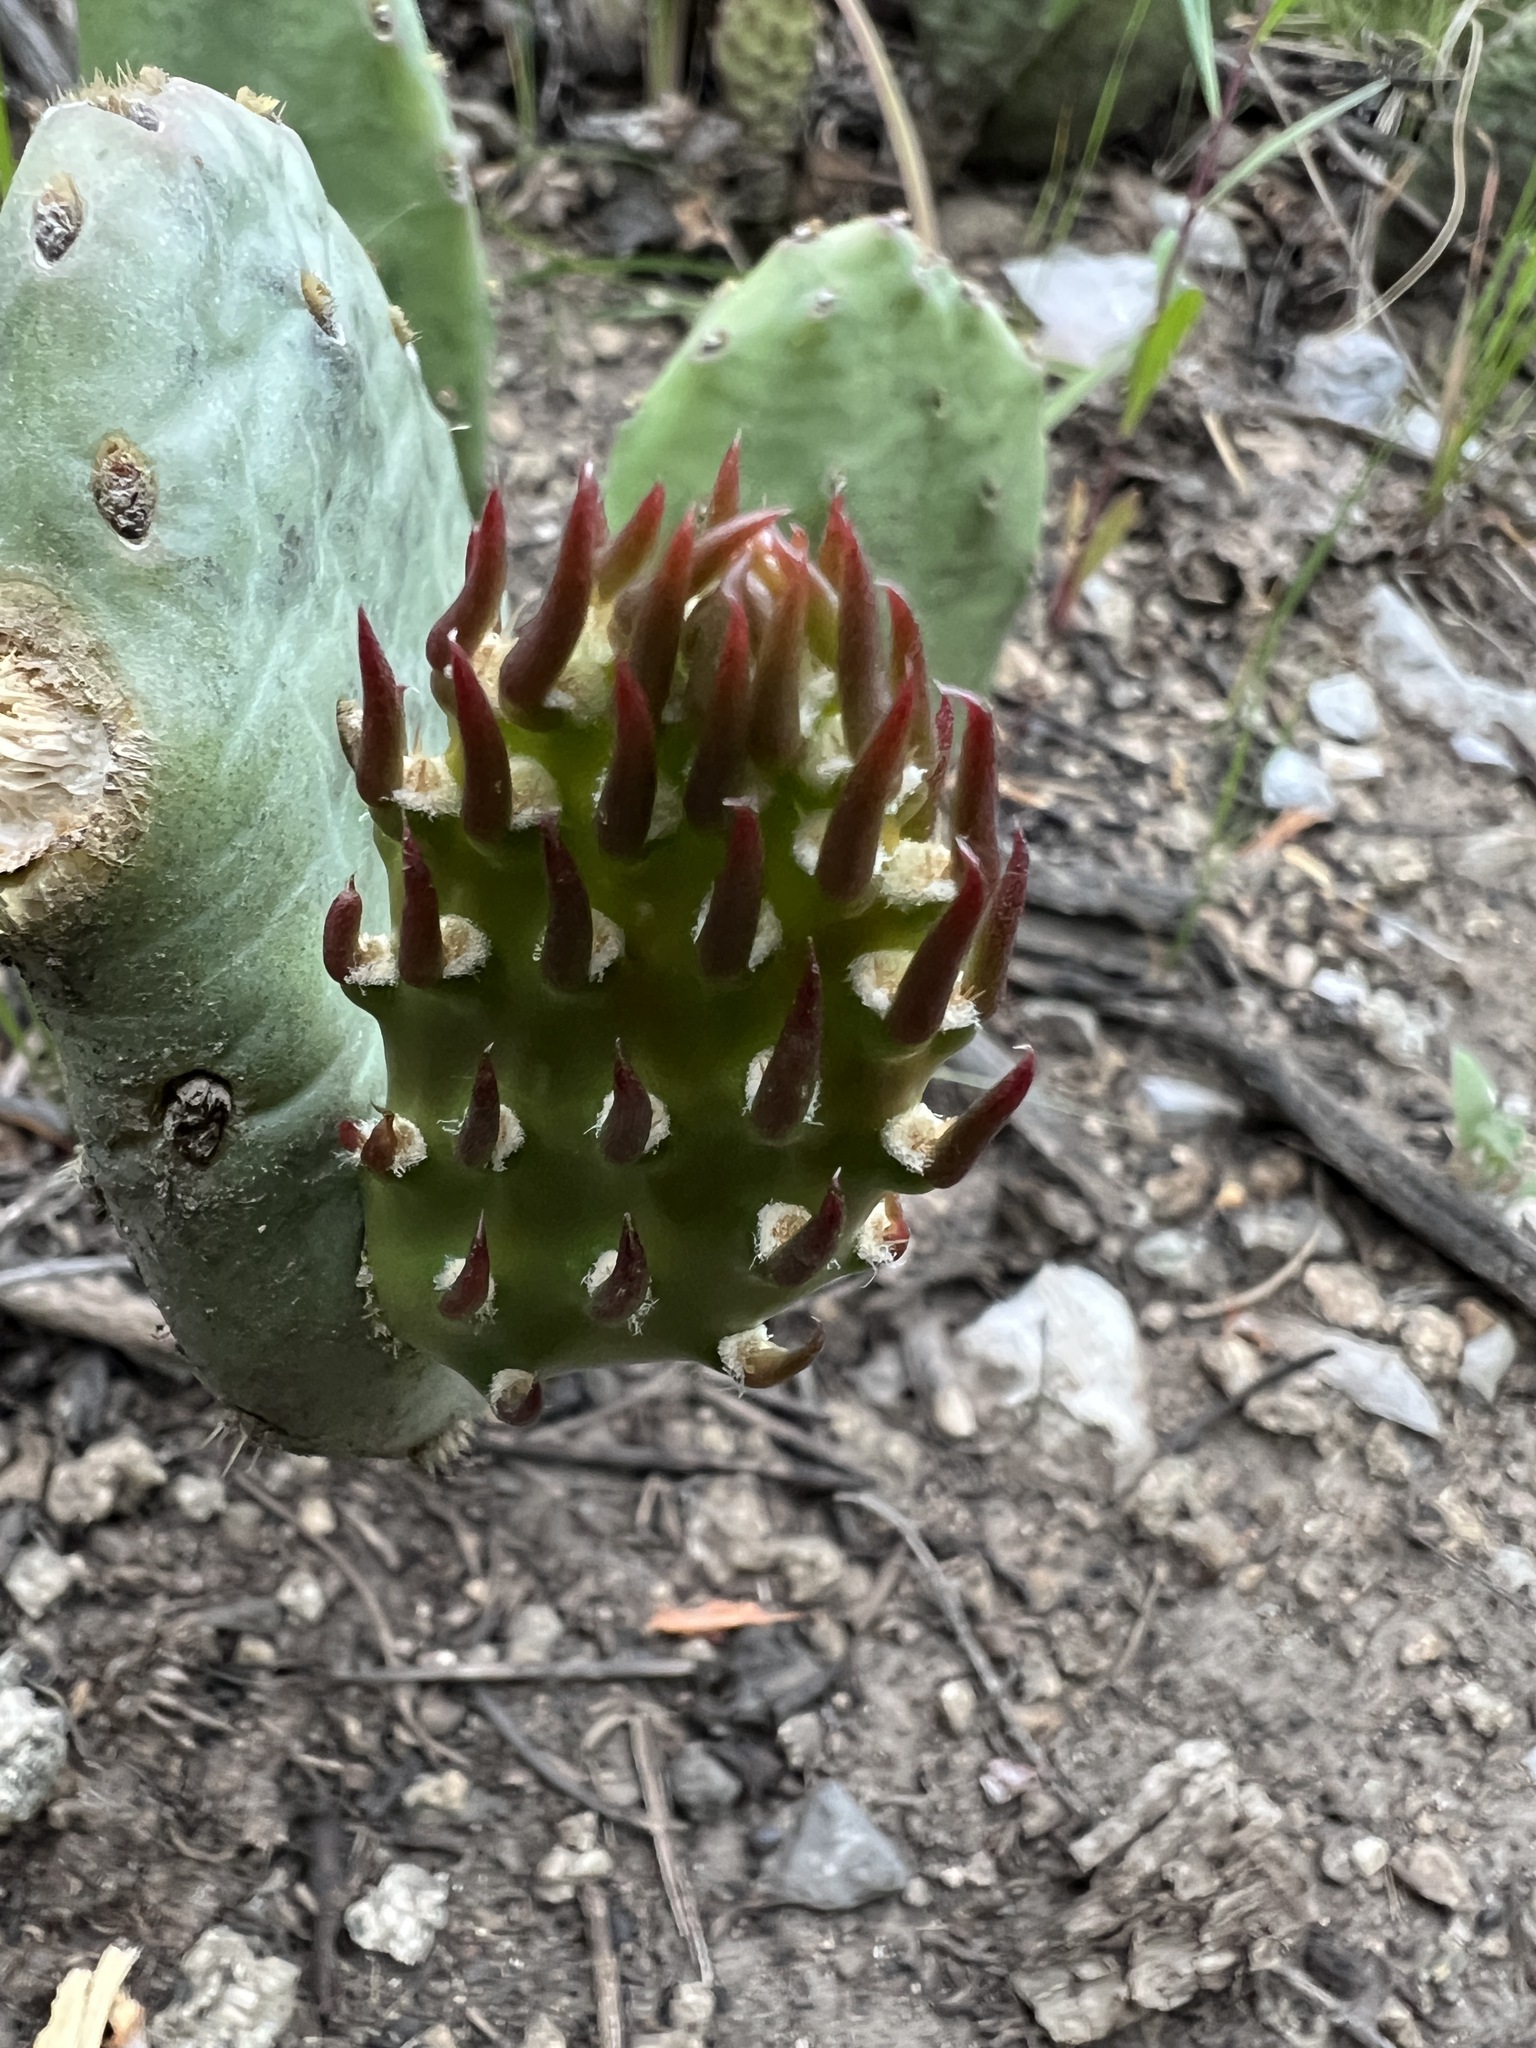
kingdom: Plantae
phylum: Tracheophyta
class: Magnoliopsida
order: Caryophyllales
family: Cactaceae
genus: Opuntia
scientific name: Opuntia macrorhiza
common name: Grassland pricklypear
